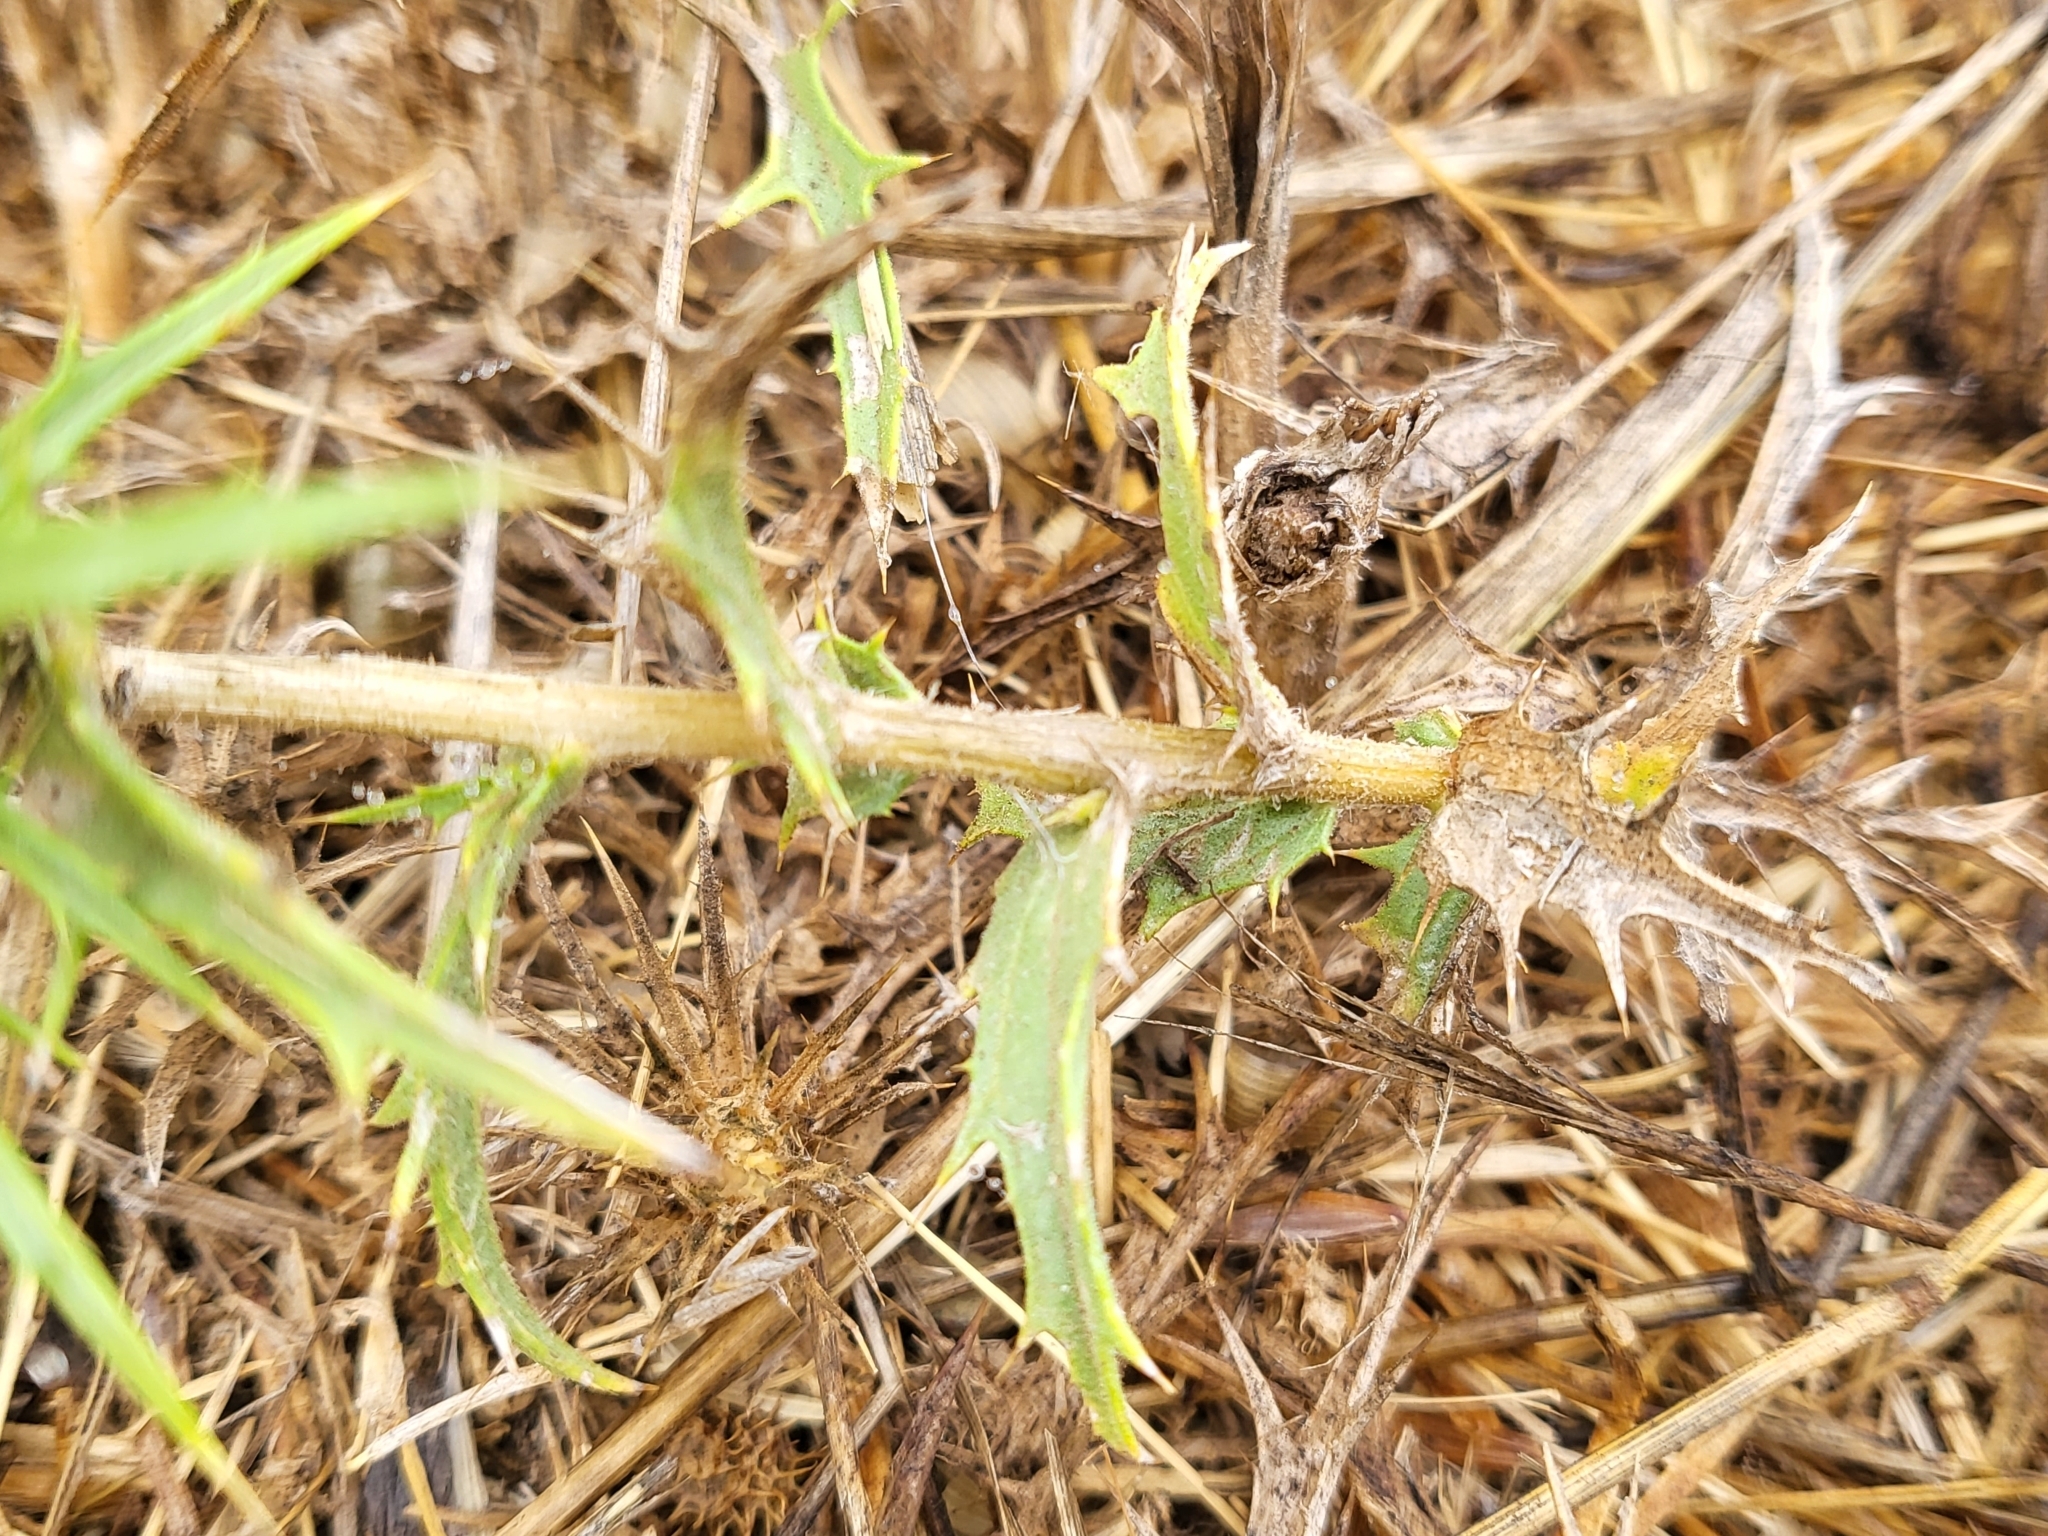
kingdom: Plantae
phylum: Tracheophyta
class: Magnoliopsida
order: Asterales
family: Asteraceae
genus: Carthamus
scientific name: Carthamus lanatus
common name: Downy safflower
